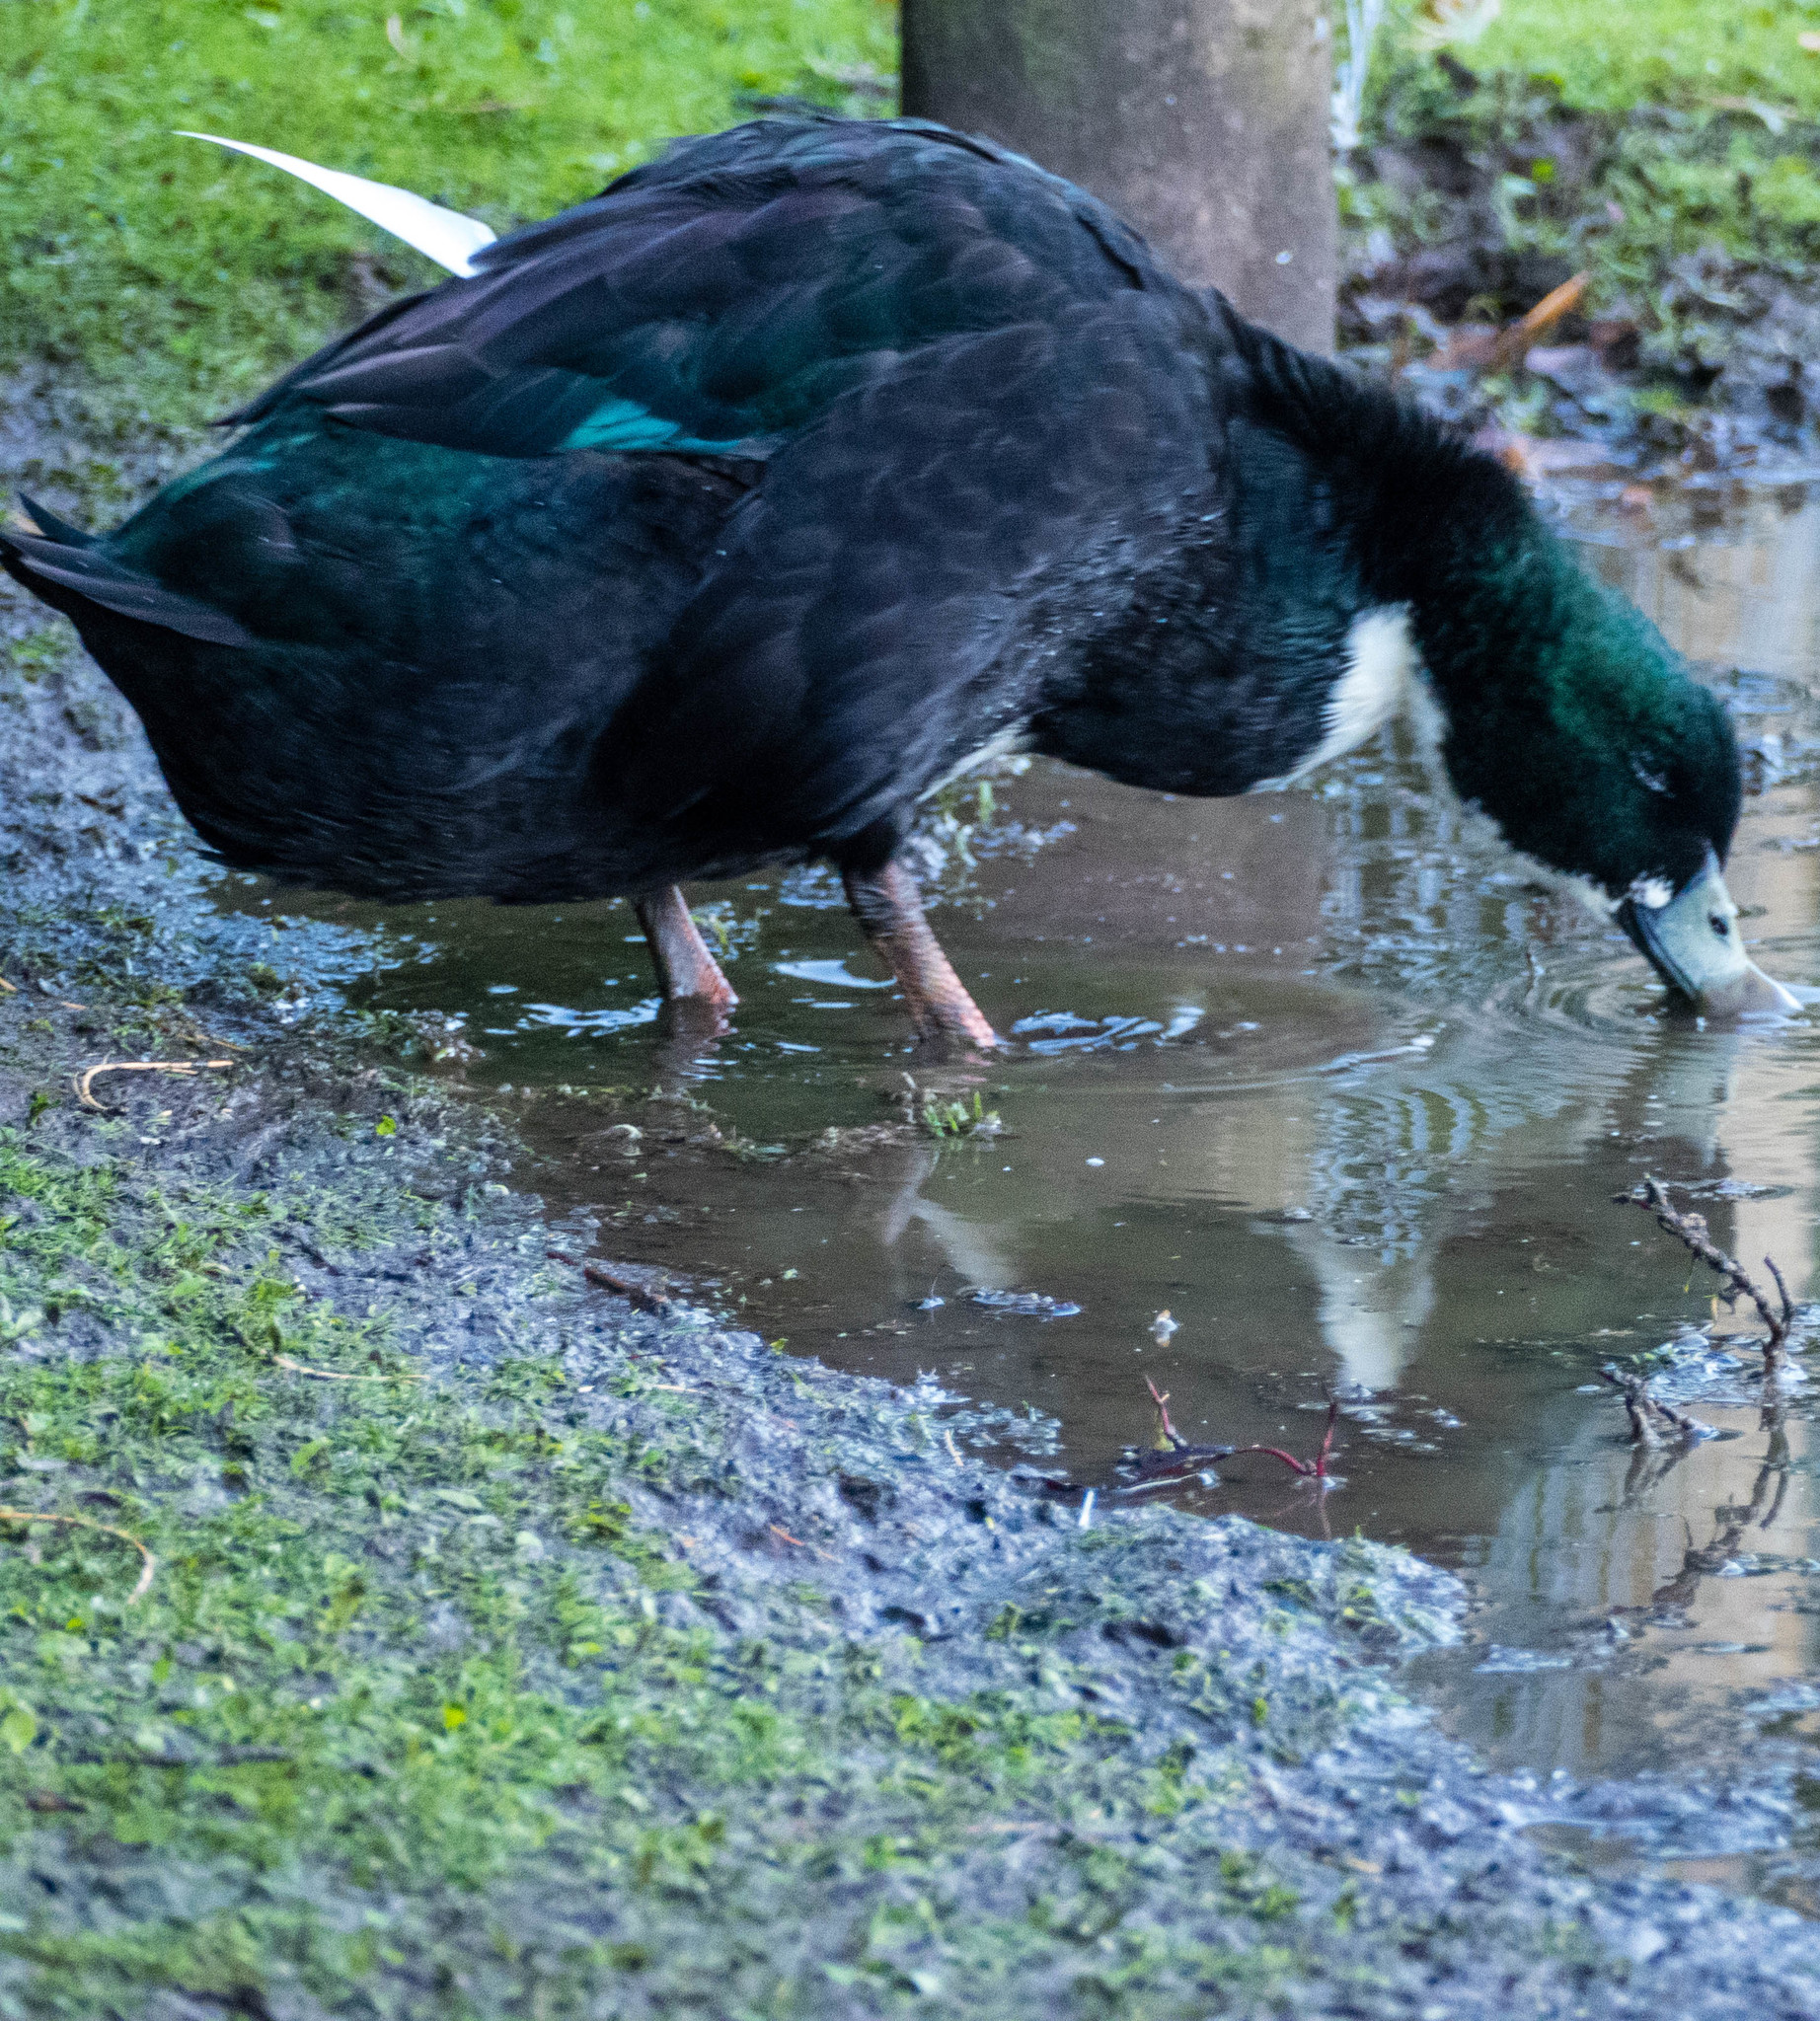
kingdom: Animalia
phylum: Chordata
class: Aves
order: Anseriformes
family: Anatidae
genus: Anas
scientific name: Anas platyrhynchos
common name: Mallard
